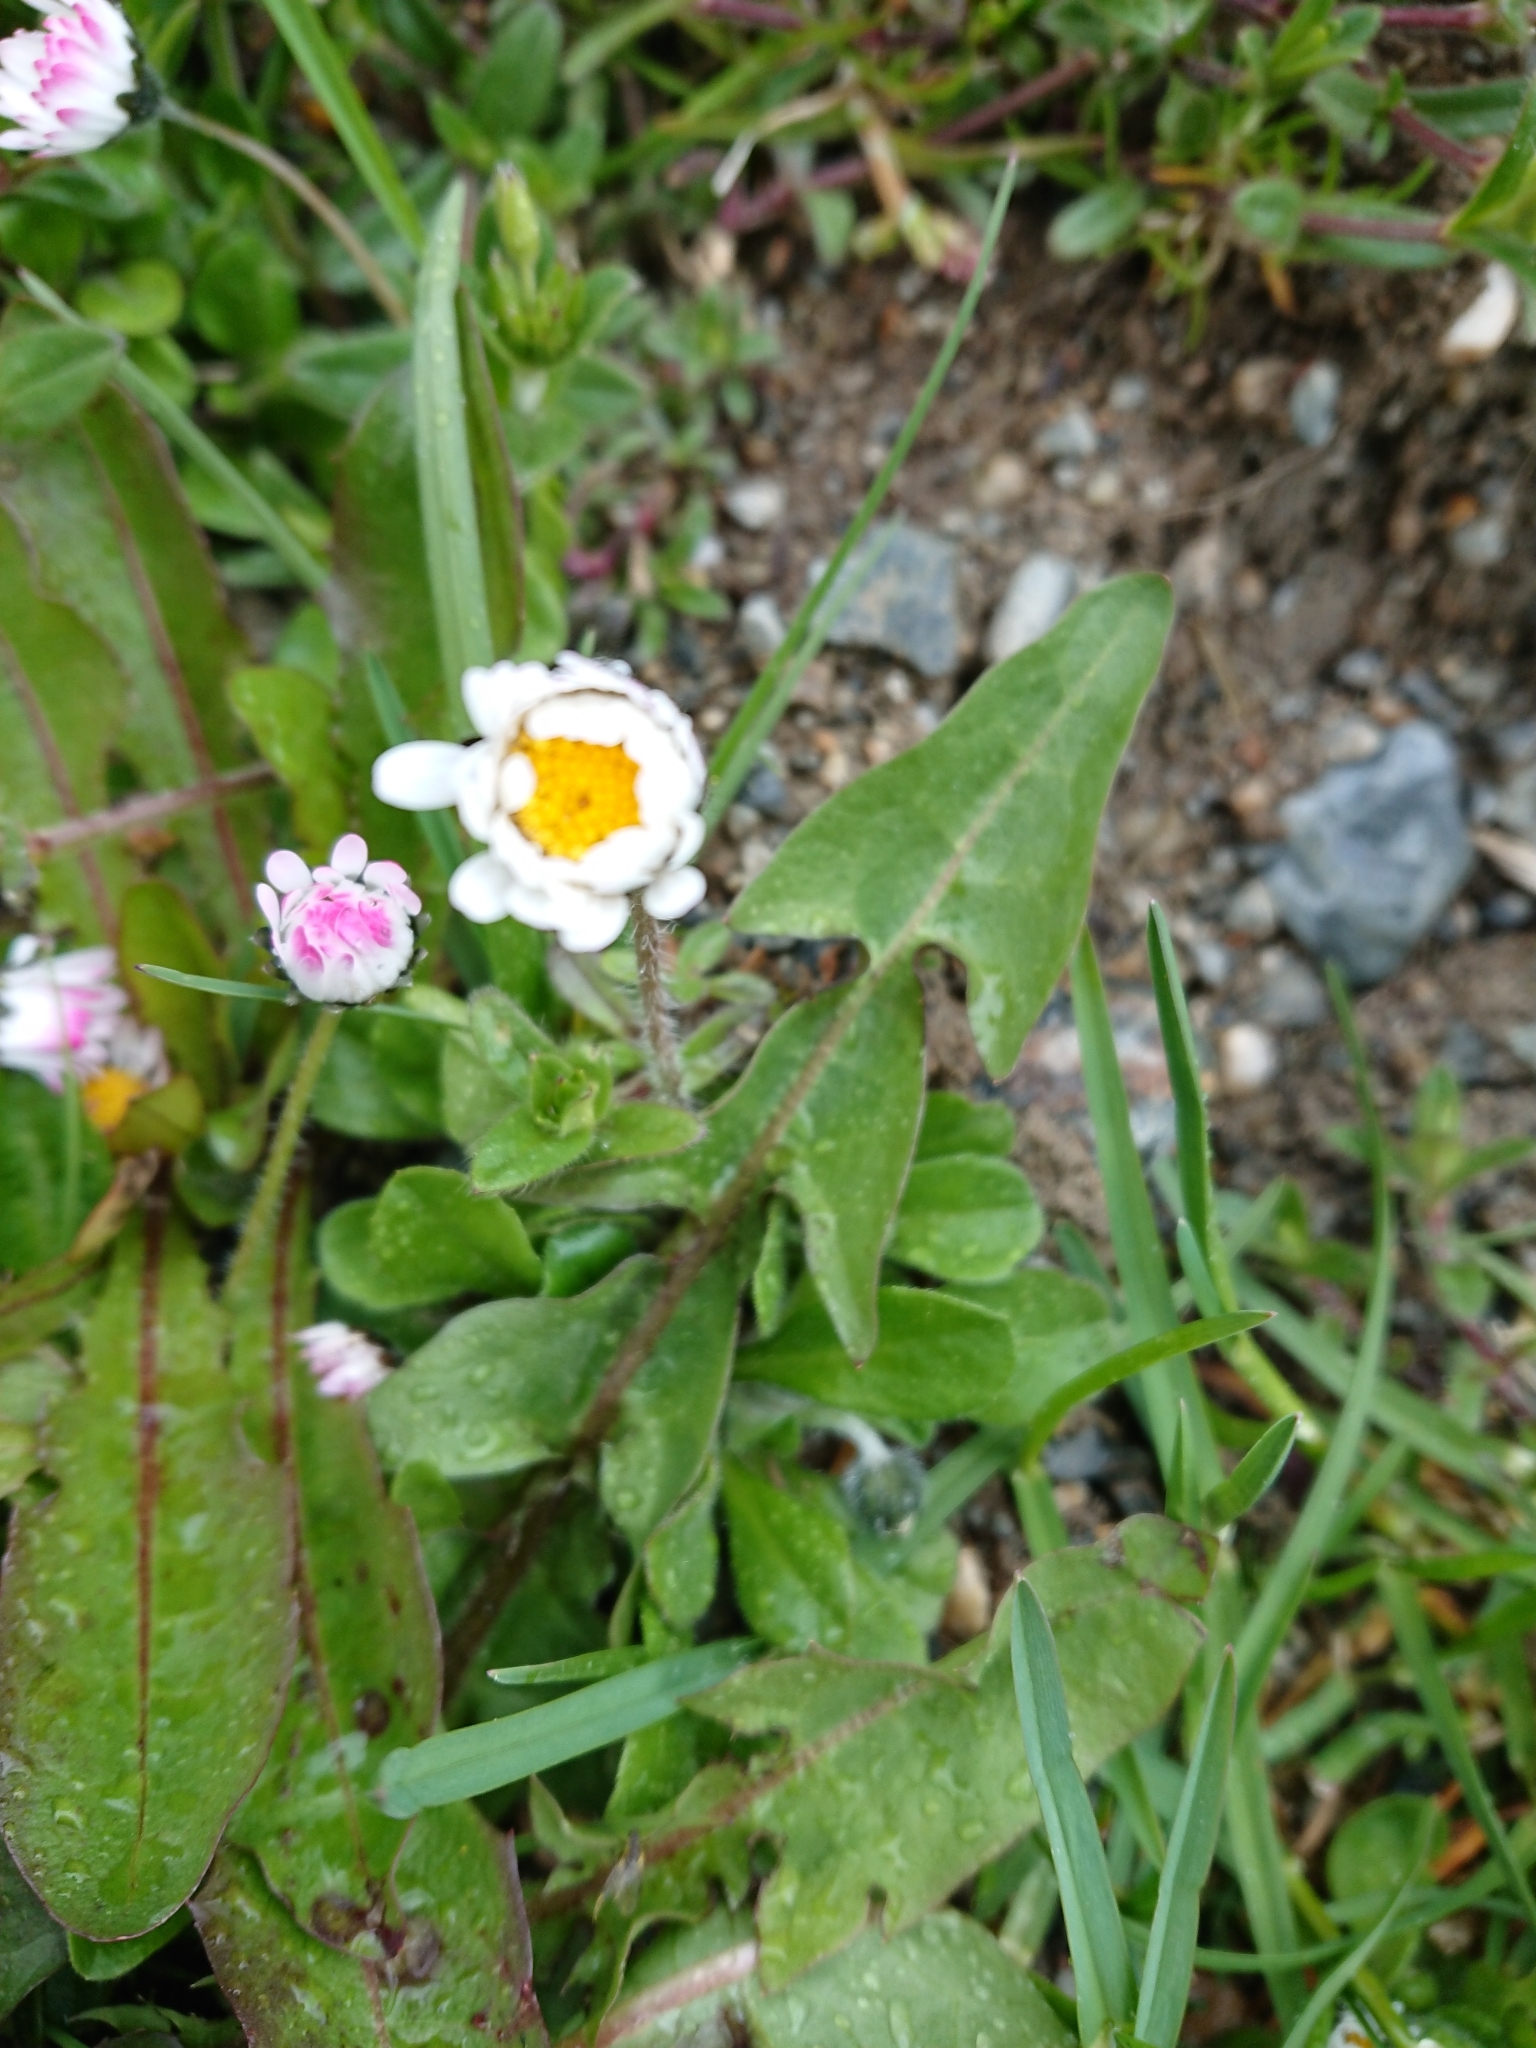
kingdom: Plantae
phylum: Tracheophyta
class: Magnoliopsida
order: Asterales
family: Asteraceae
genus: Bellis
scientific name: Bellis perennis
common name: Lawndaisy
